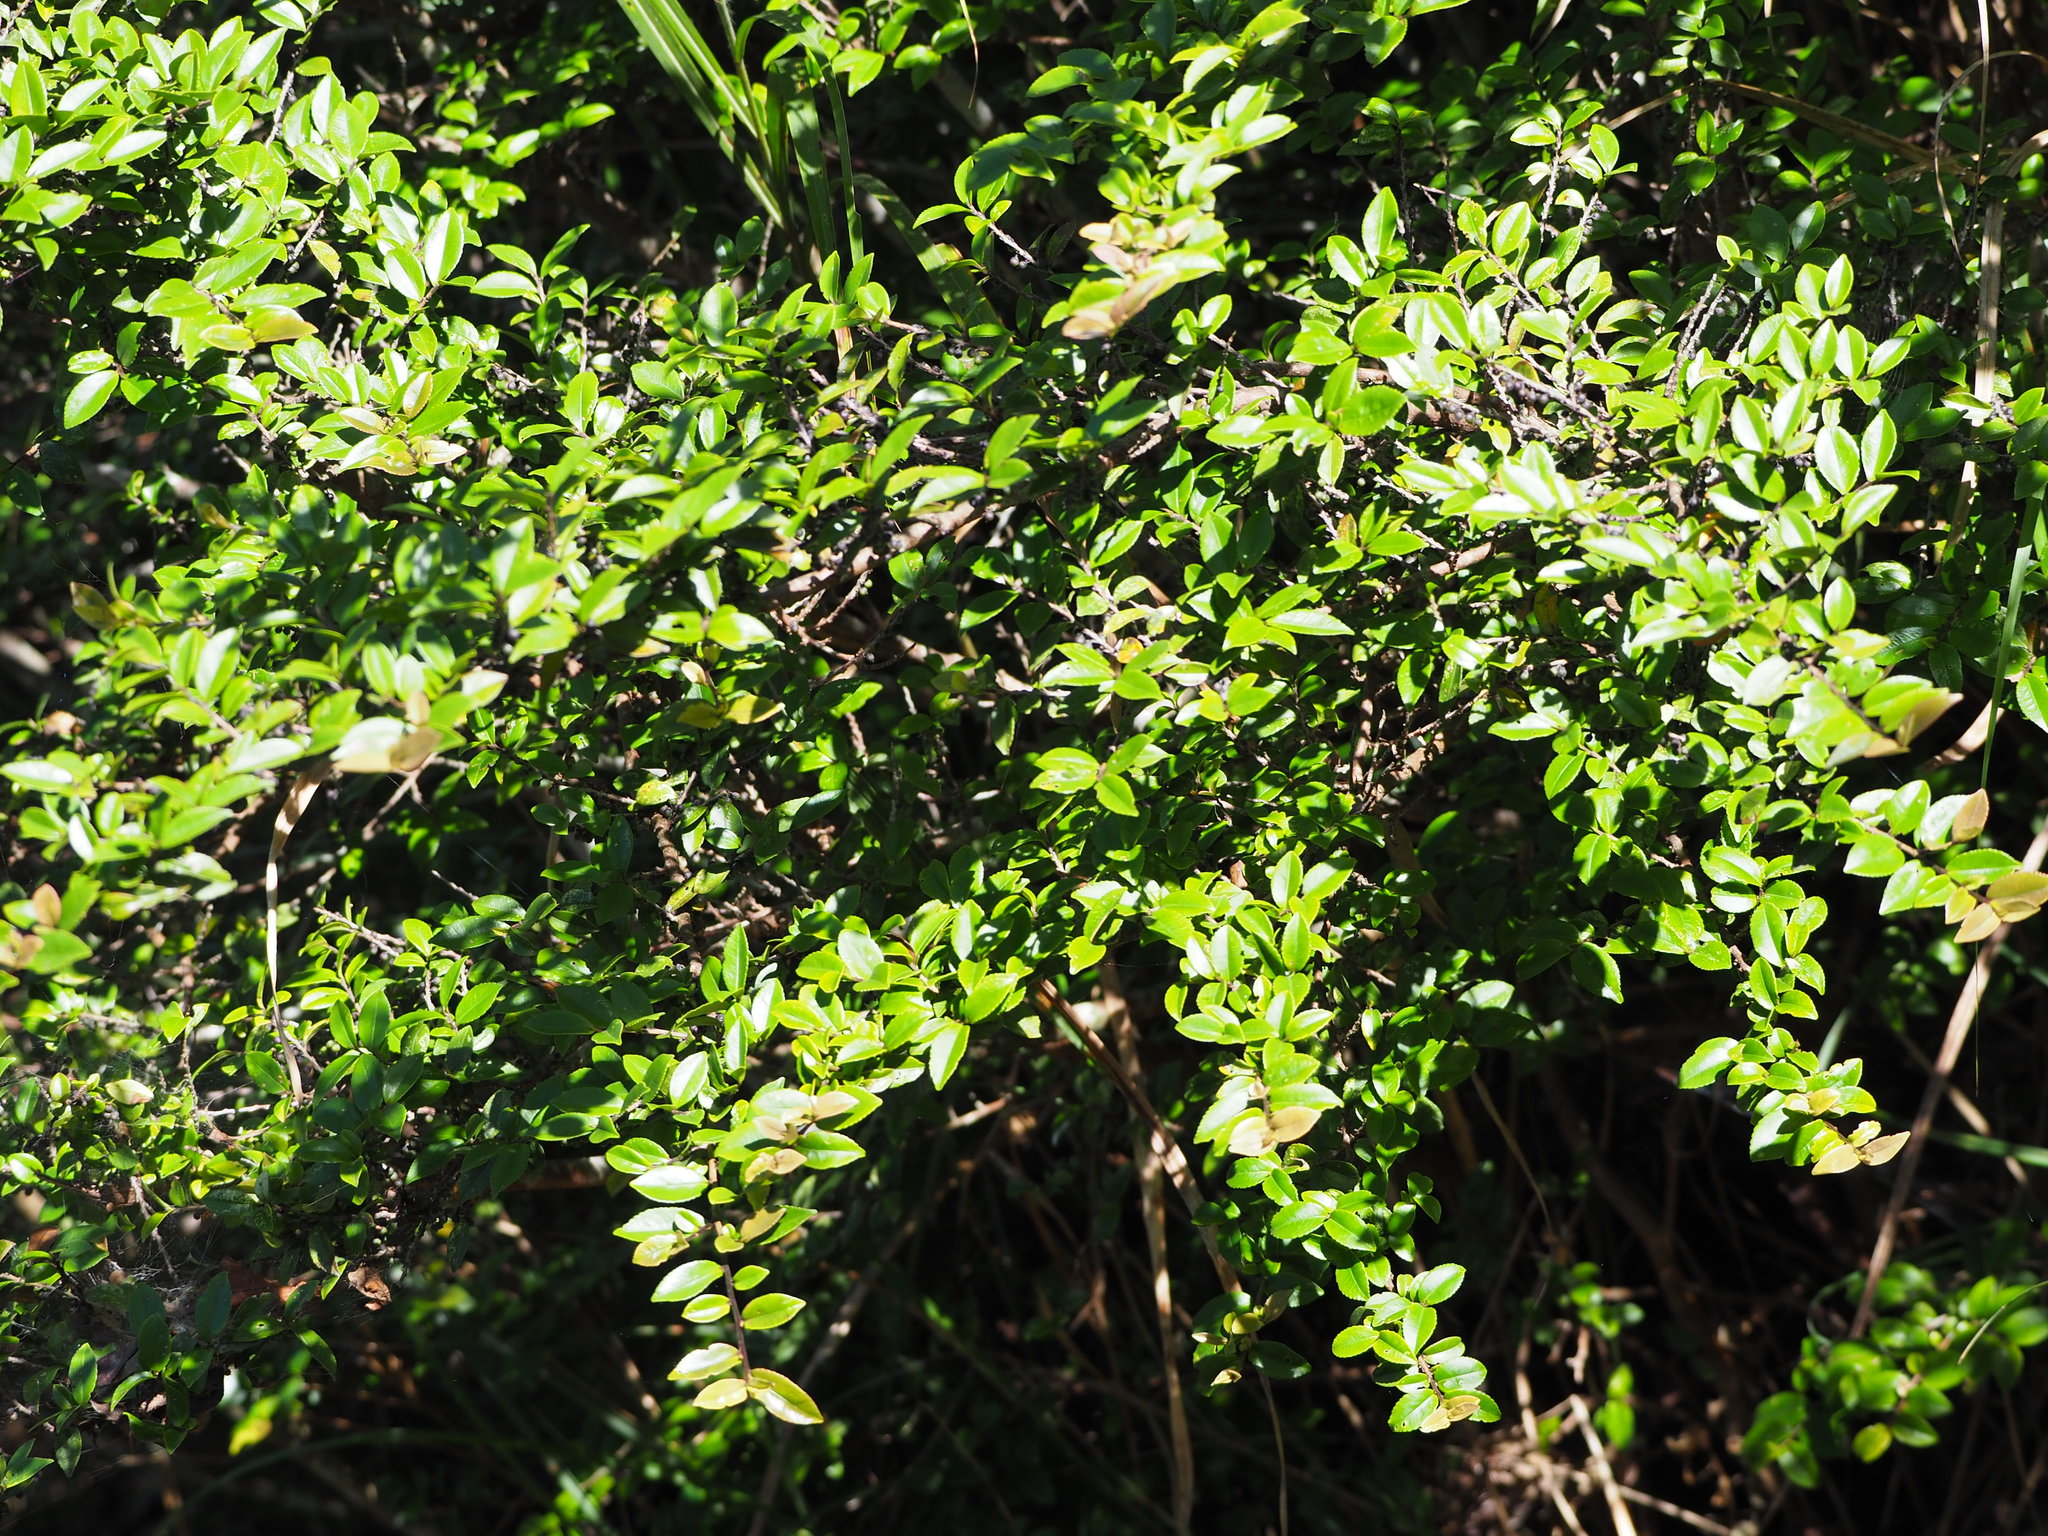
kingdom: Plantae
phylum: Tracheophyta
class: Magnoliopsida
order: Ericales
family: Pentaphylacaceae
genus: Eurya
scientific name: Eurya crenatifolia
